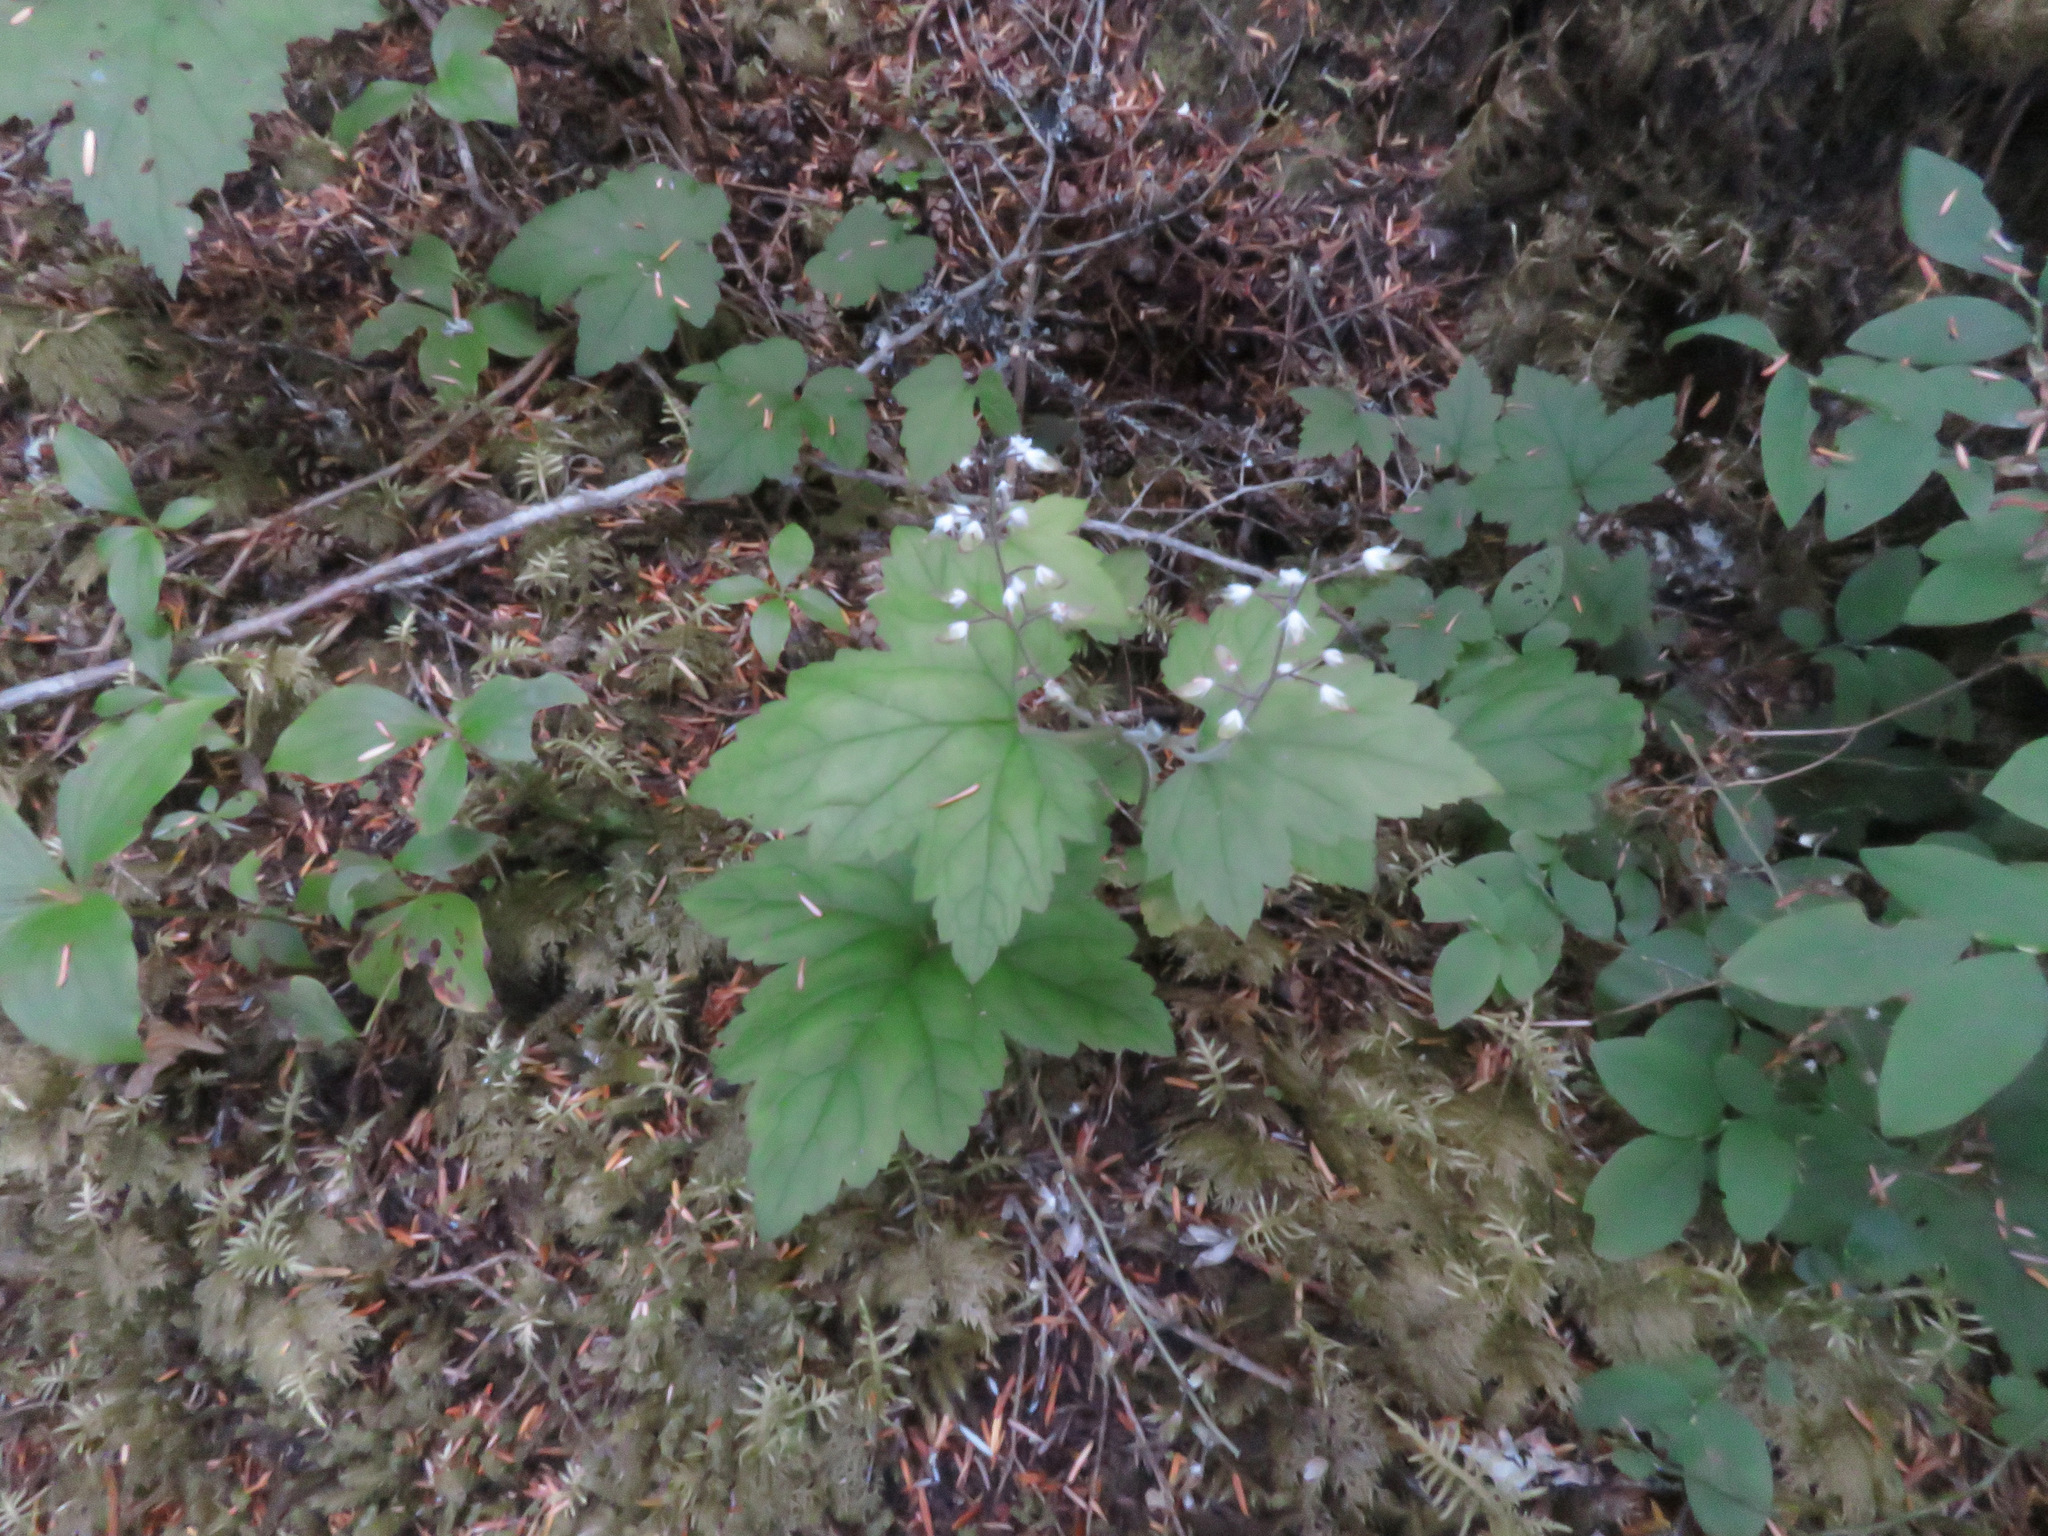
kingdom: Plantae
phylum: Tracheophyta
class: Magnoliopsida
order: Saxifragales
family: Saxifragaceae
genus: Tiarella
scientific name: Tiarella trifoliata
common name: Sugar-scoop
